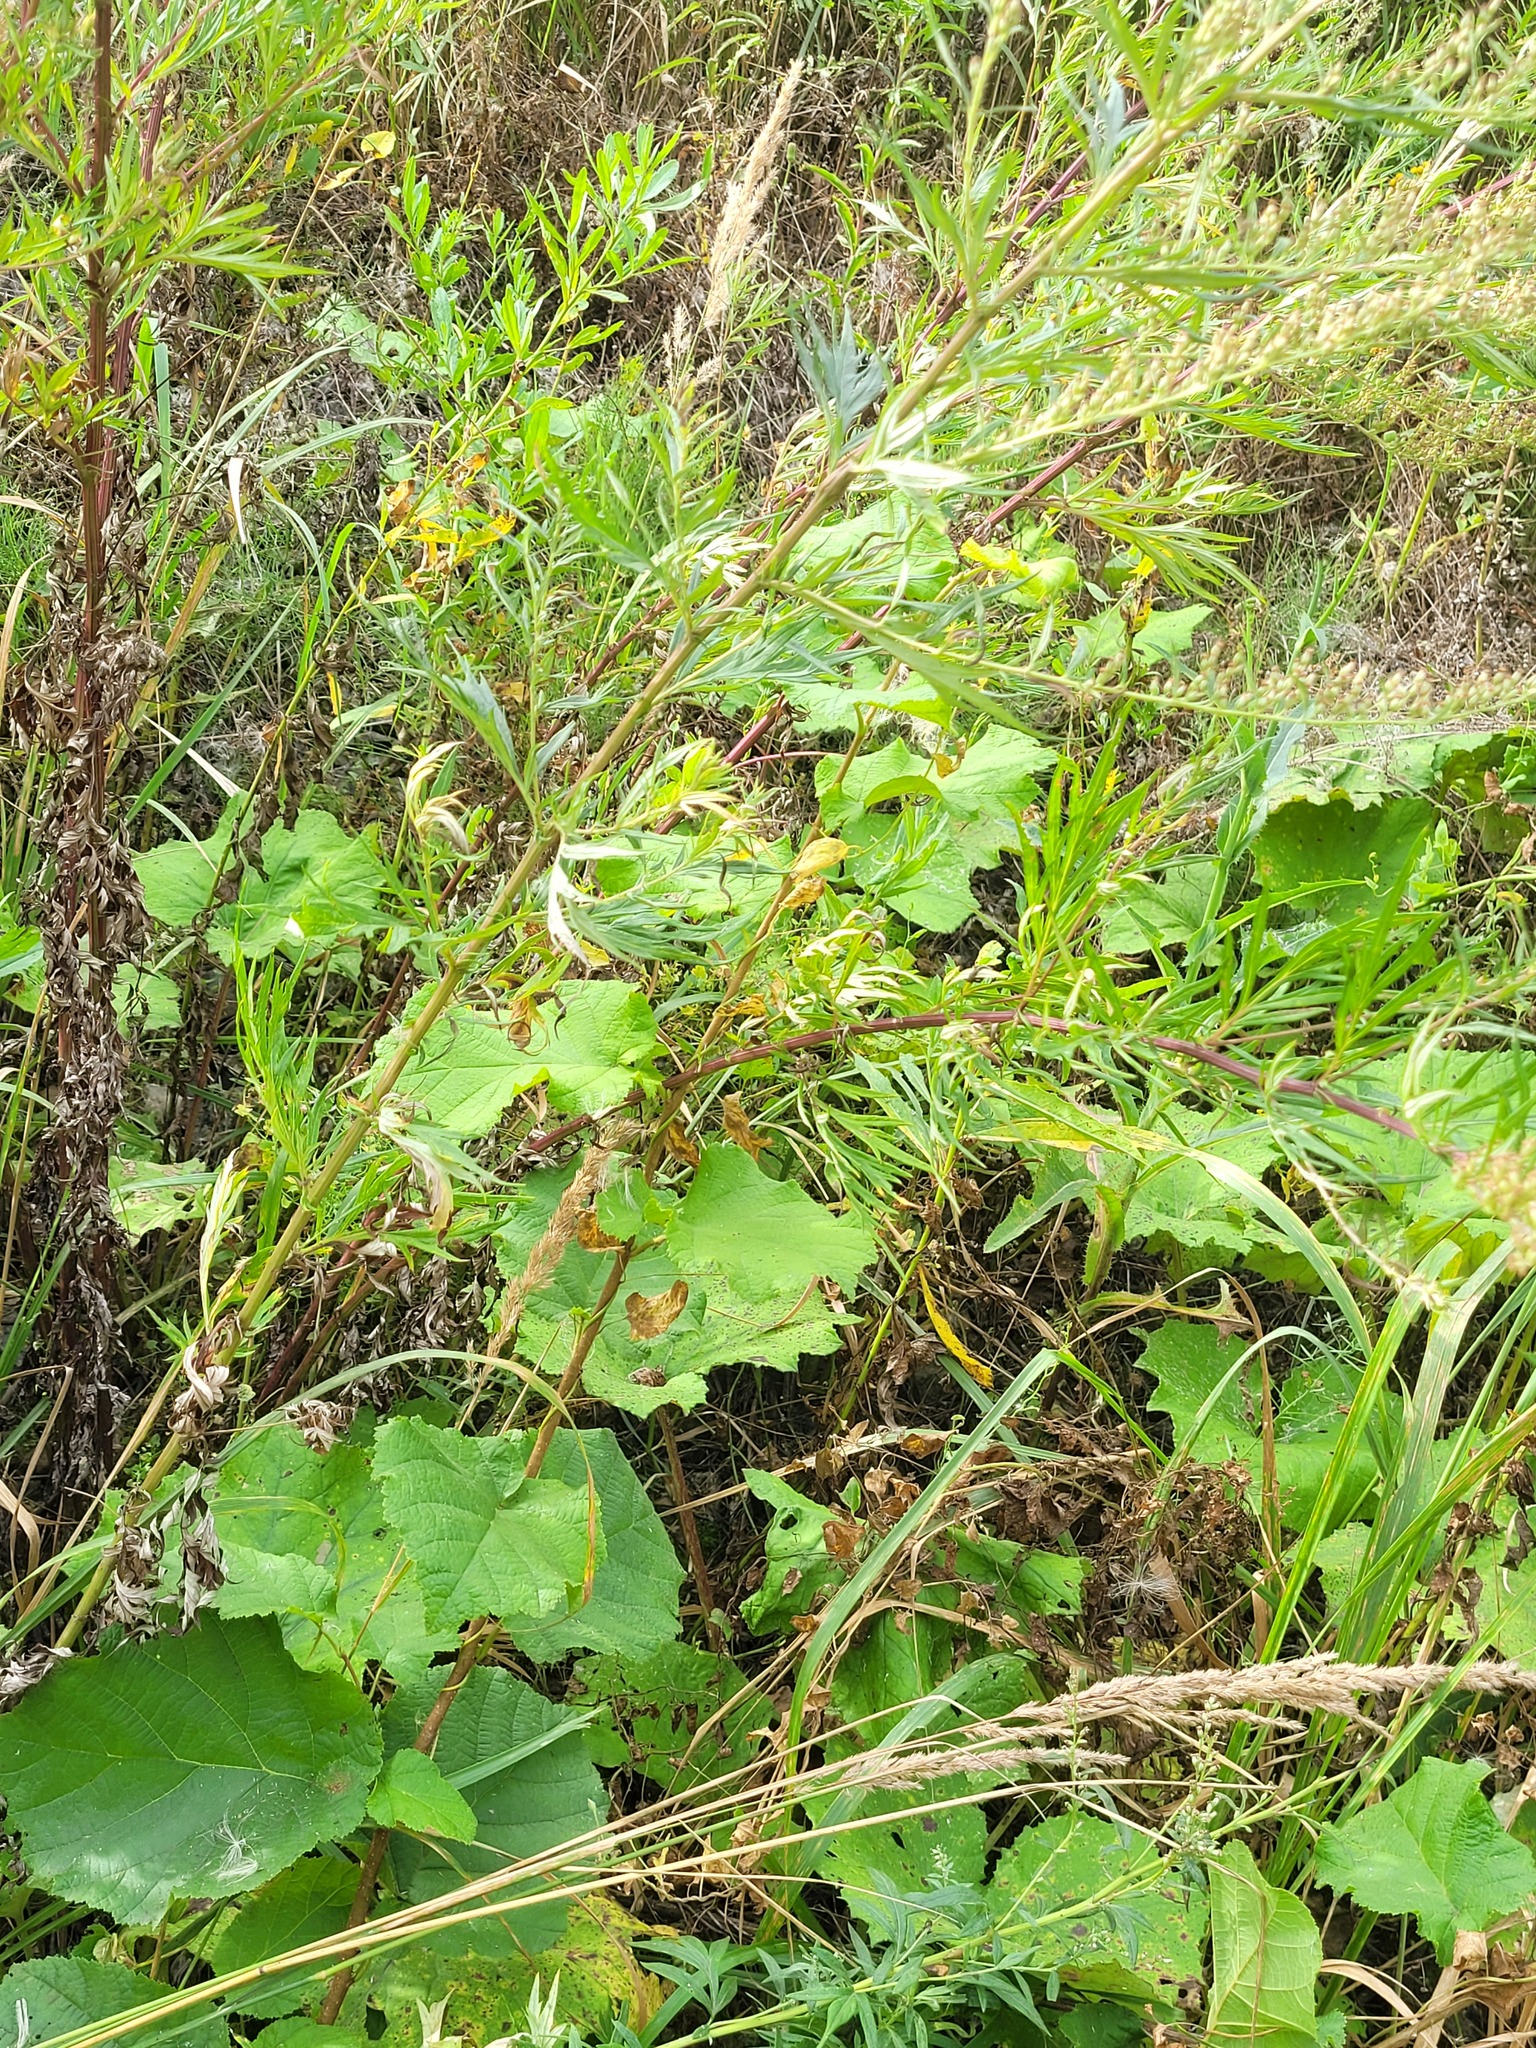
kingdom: Plantae
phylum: Tracheophyta
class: Magnoliopsida
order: Asterales
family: Asteraceae
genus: Artemisia
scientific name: Artemisia vulgaris
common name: Mugwort
